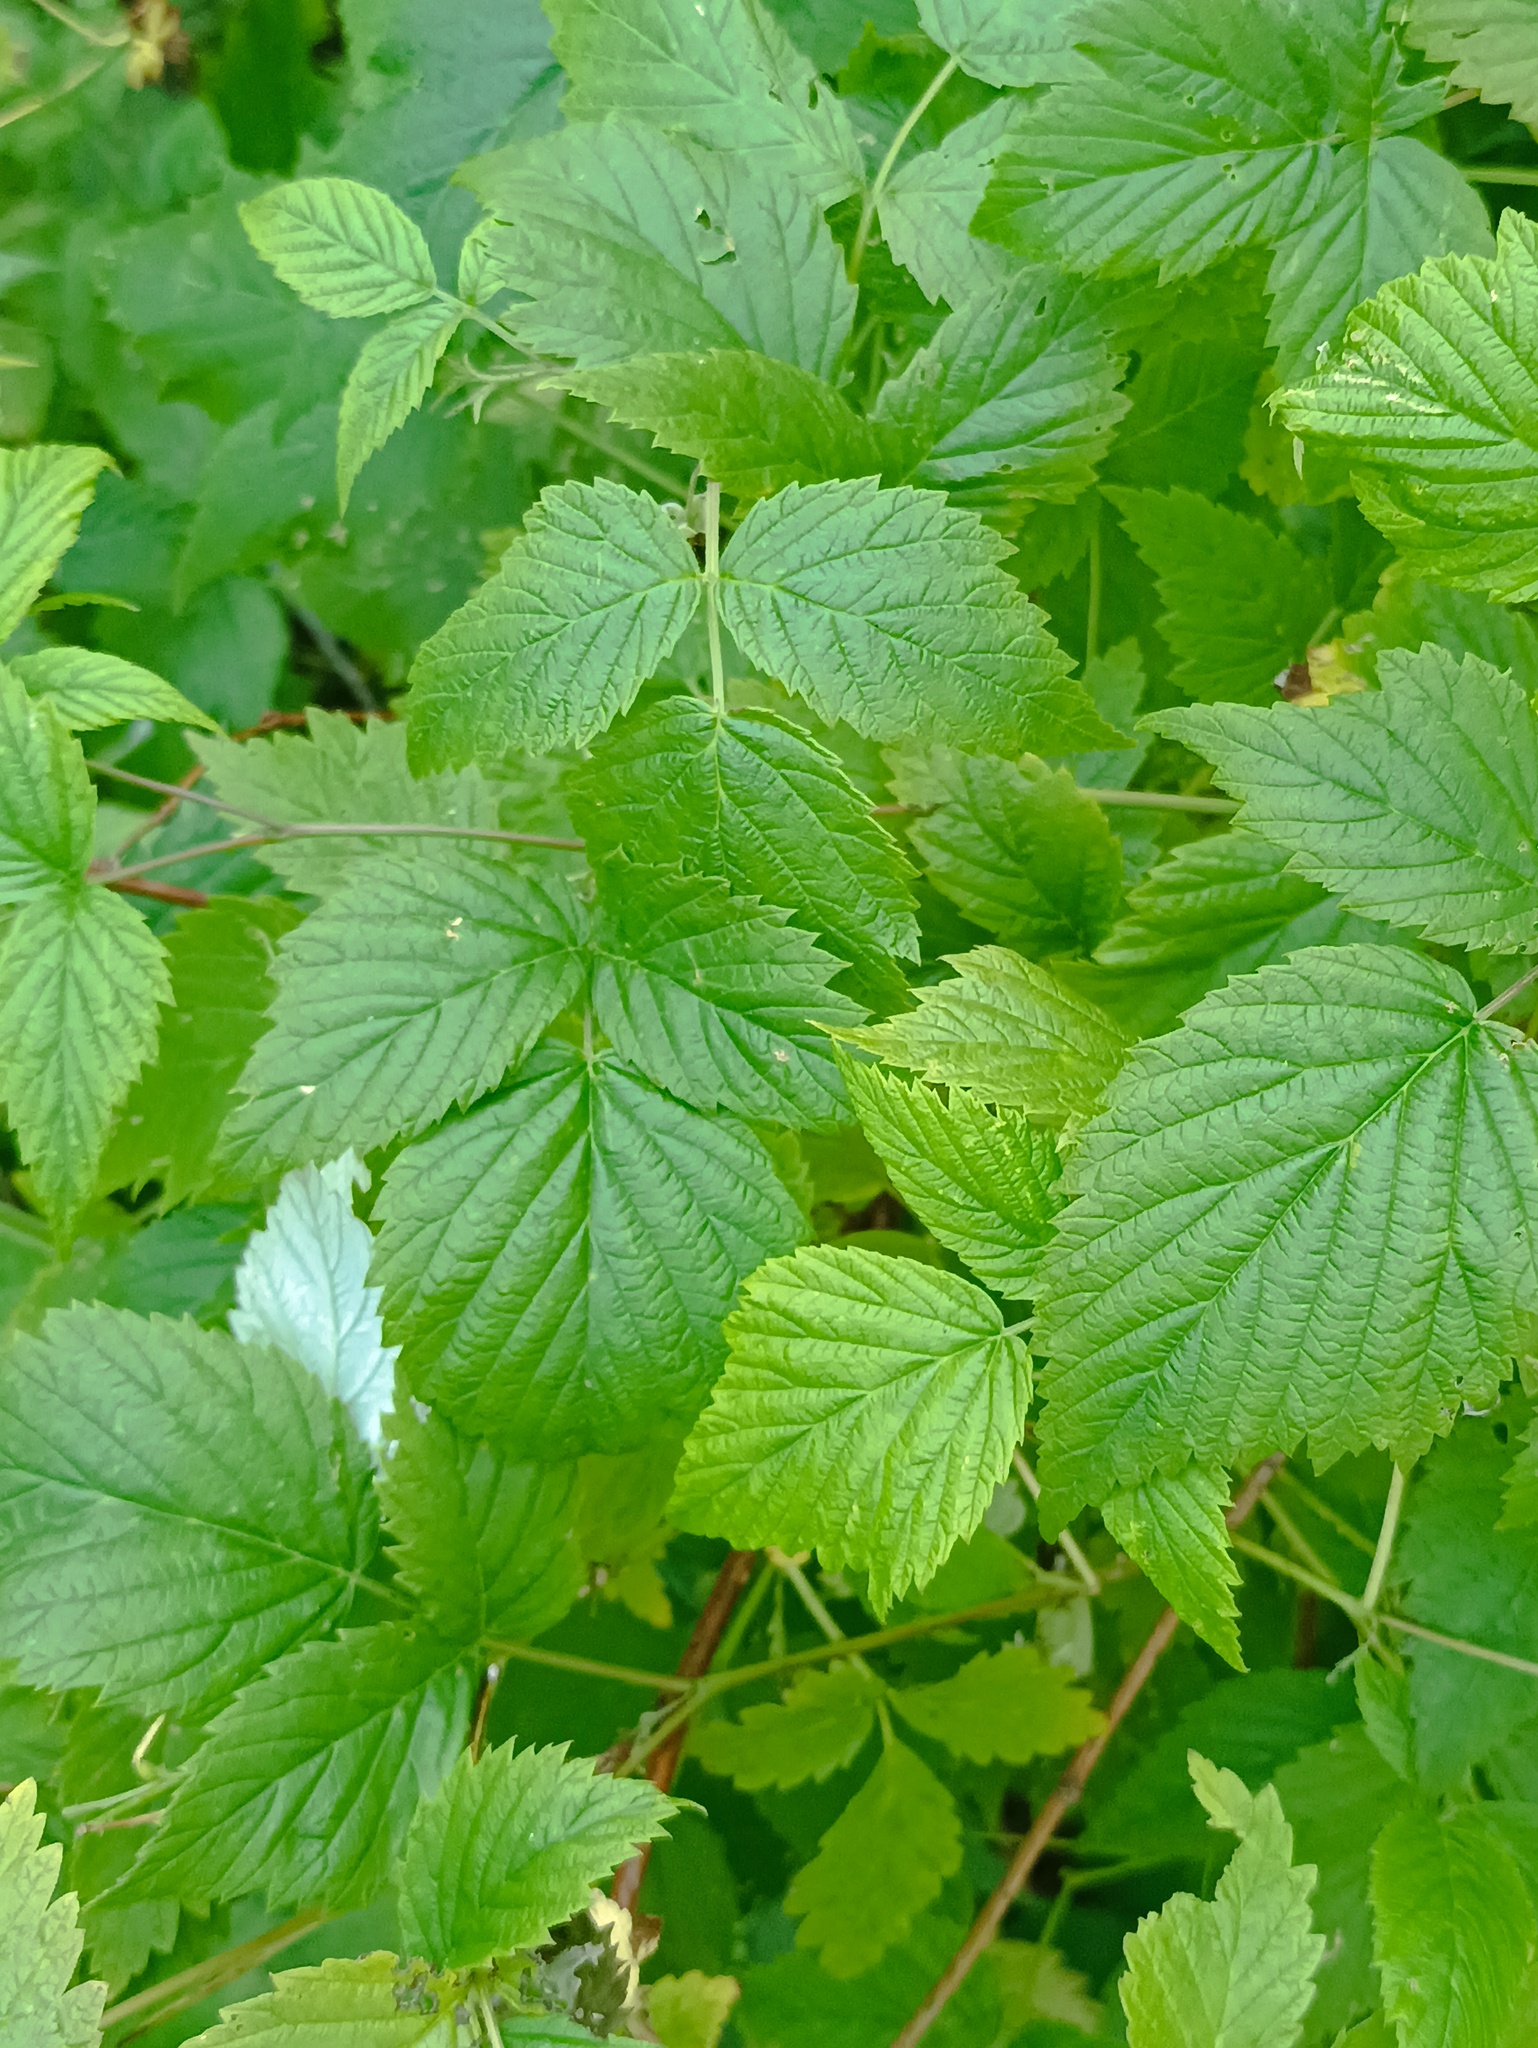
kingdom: Plantae
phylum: Tracheophyta
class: Magnoliopsida
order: Rosales
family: Rosaceae
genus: Rubus
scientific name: Rubus idaeus
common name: Raspberry
